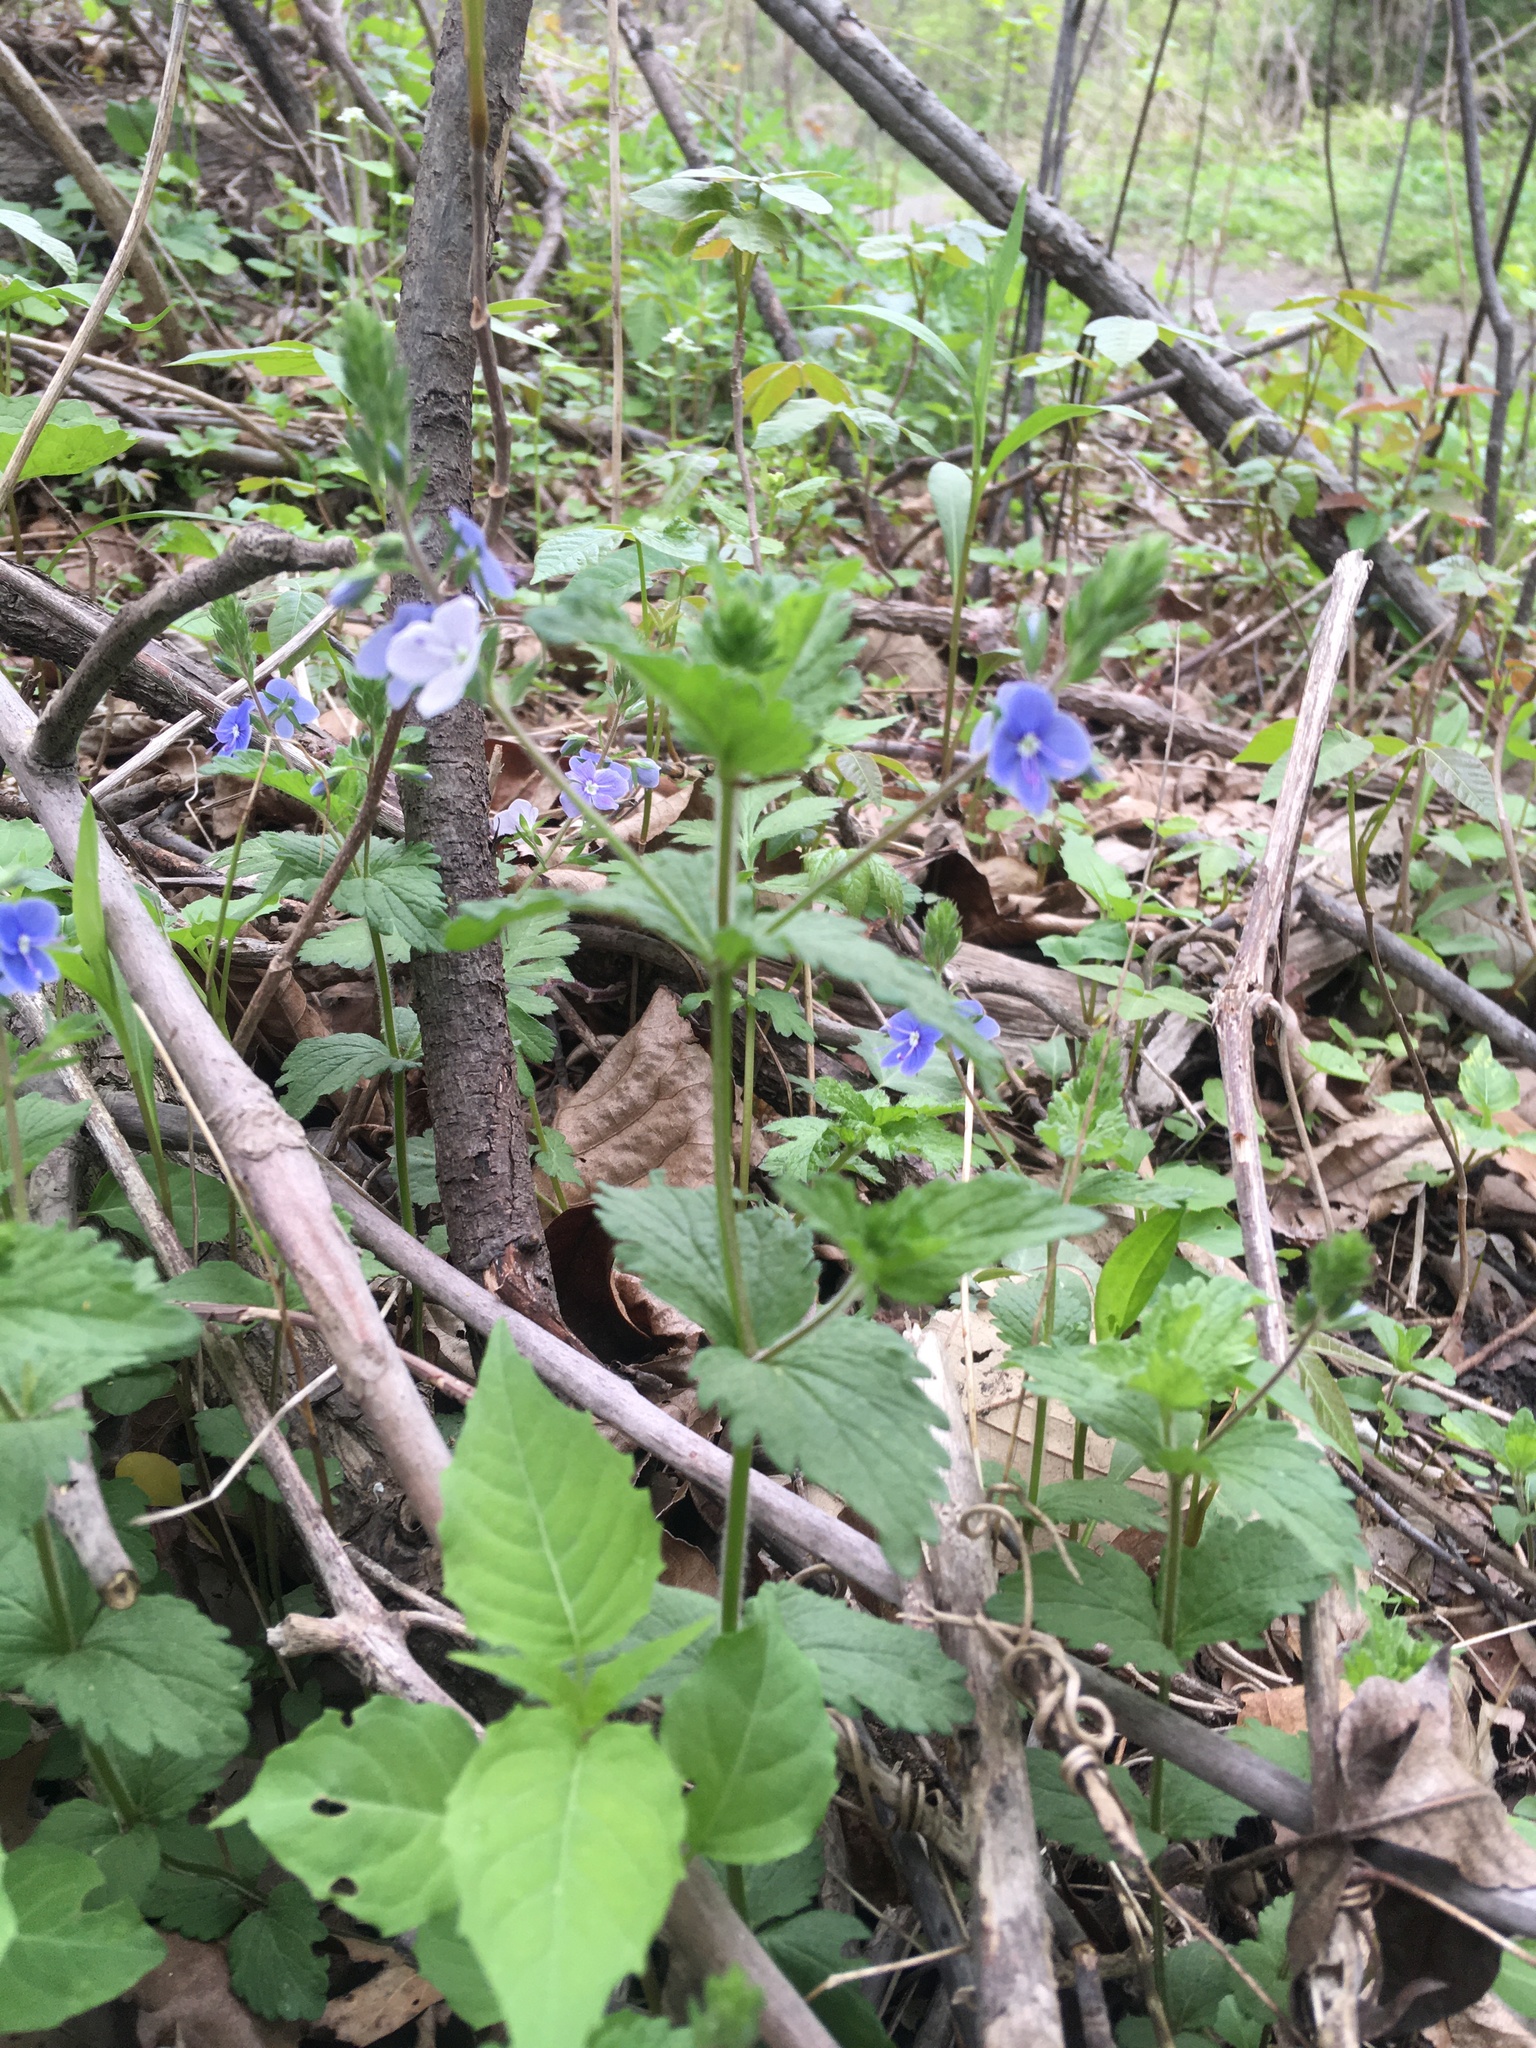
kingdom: Plantae
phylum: Tracheophyta
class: Magnoliopsida
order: Lamiales
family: Plantaginaceae
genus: Veronica
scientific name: Veronica chamaedrys
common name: Germander speedwell
